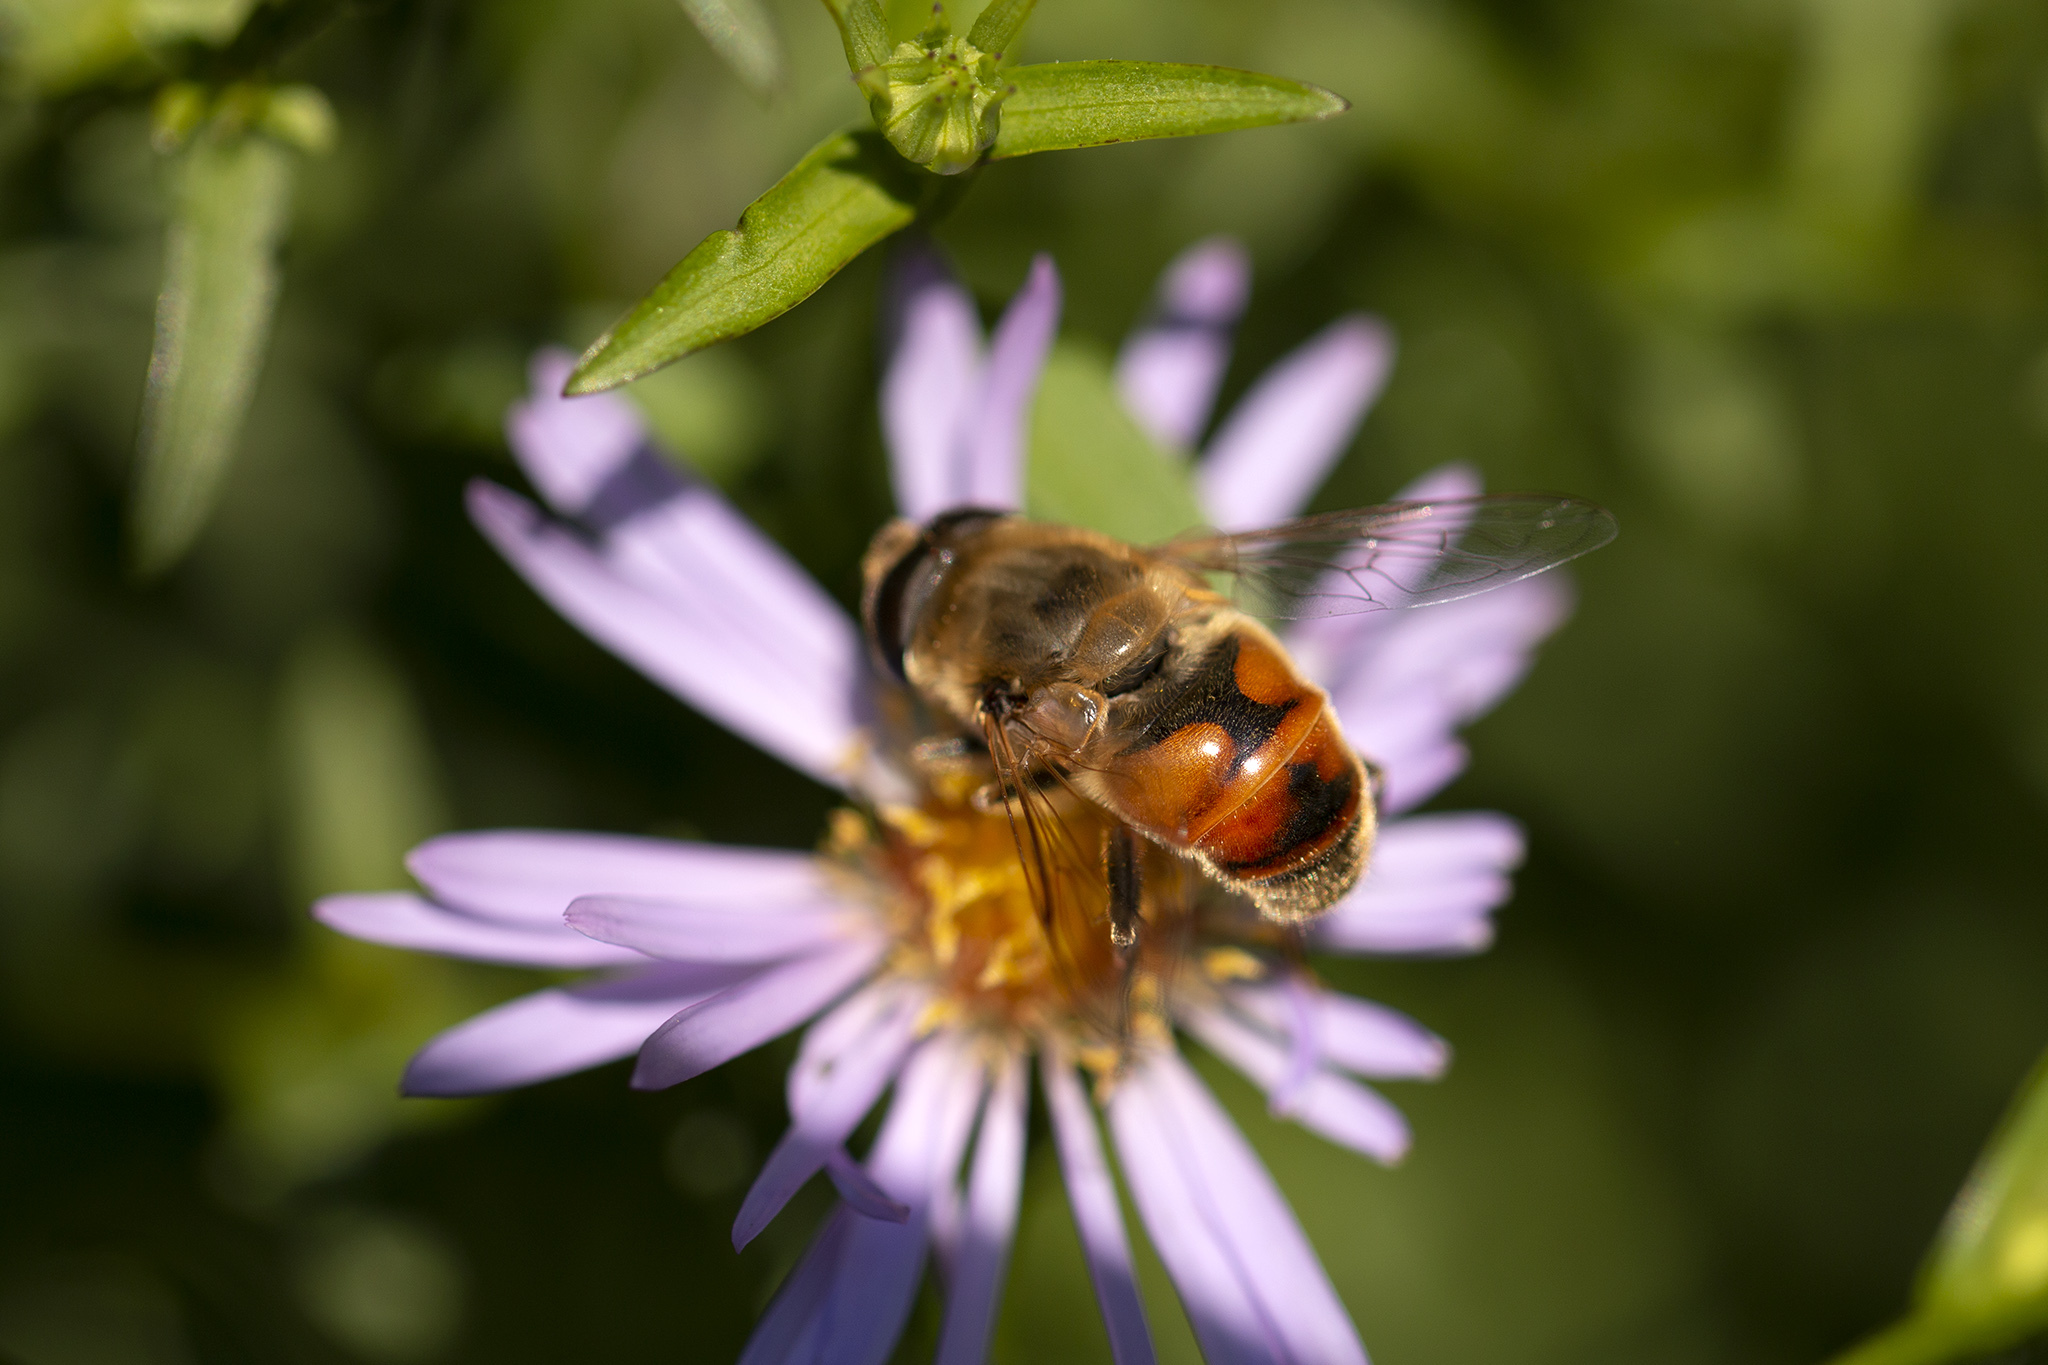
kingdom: Animalia
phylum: Arthropoda
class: Insecta
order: Diptera
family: Syrphidae
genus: Eristalis
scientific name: Eristalis tenax
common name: Drone fly
